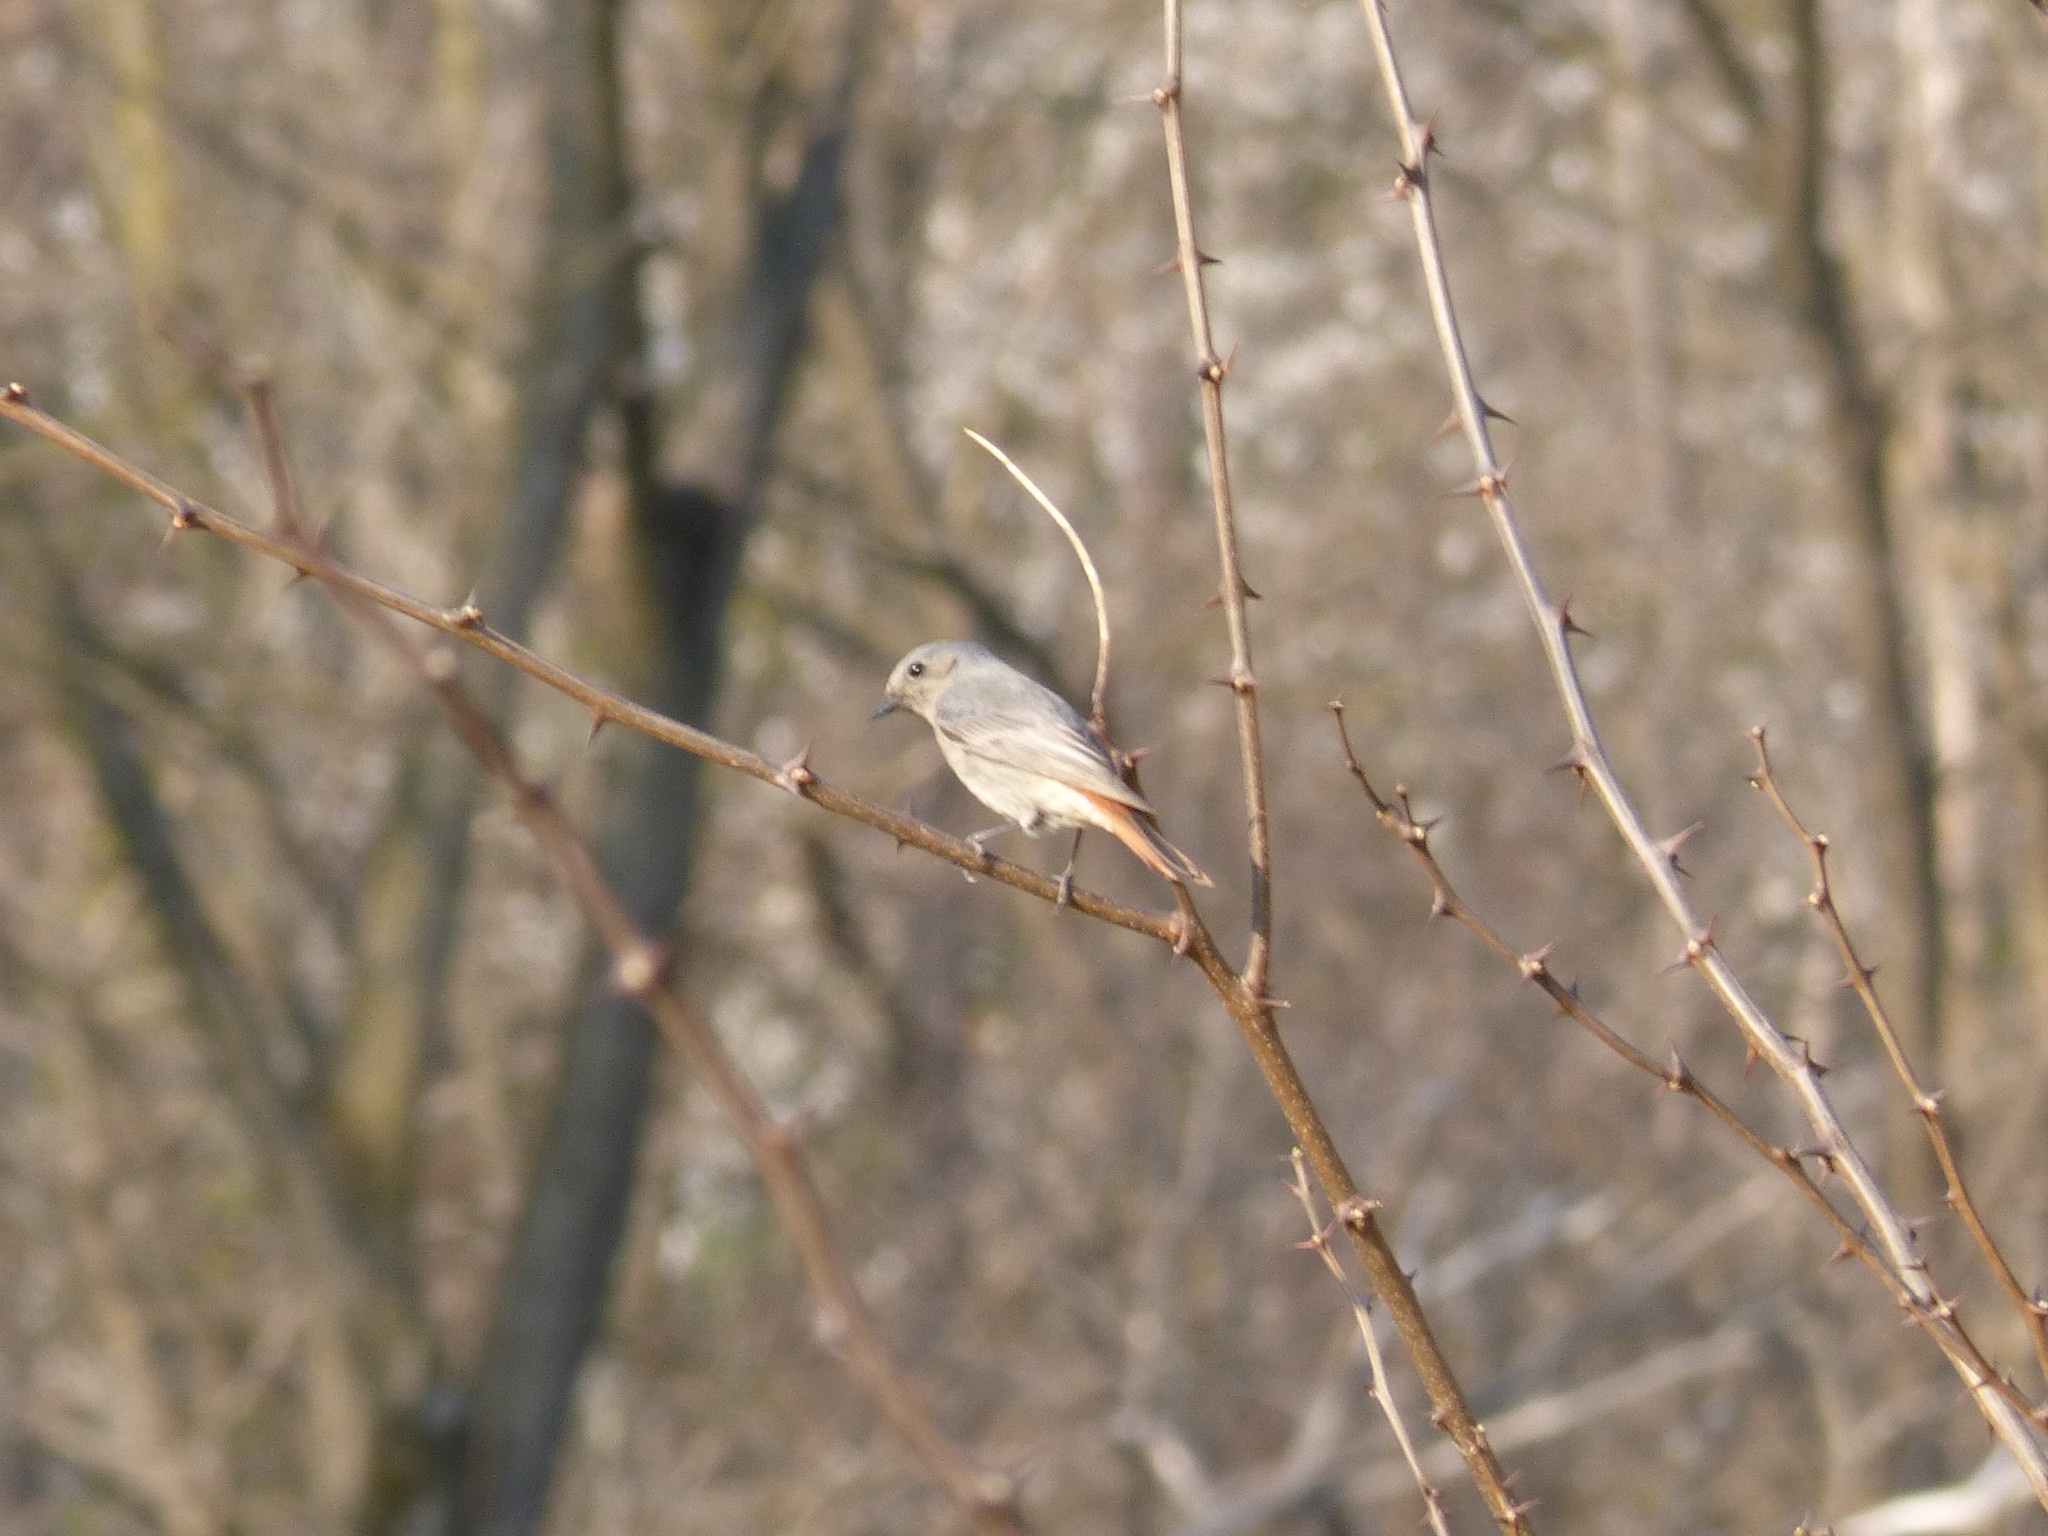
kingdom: Animalia
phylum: Chordata
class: Aves
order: Passeriformes
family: Muscicapidae
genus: Phoenicurus
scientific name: Phoenicurus ochruros
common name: Black redstart
